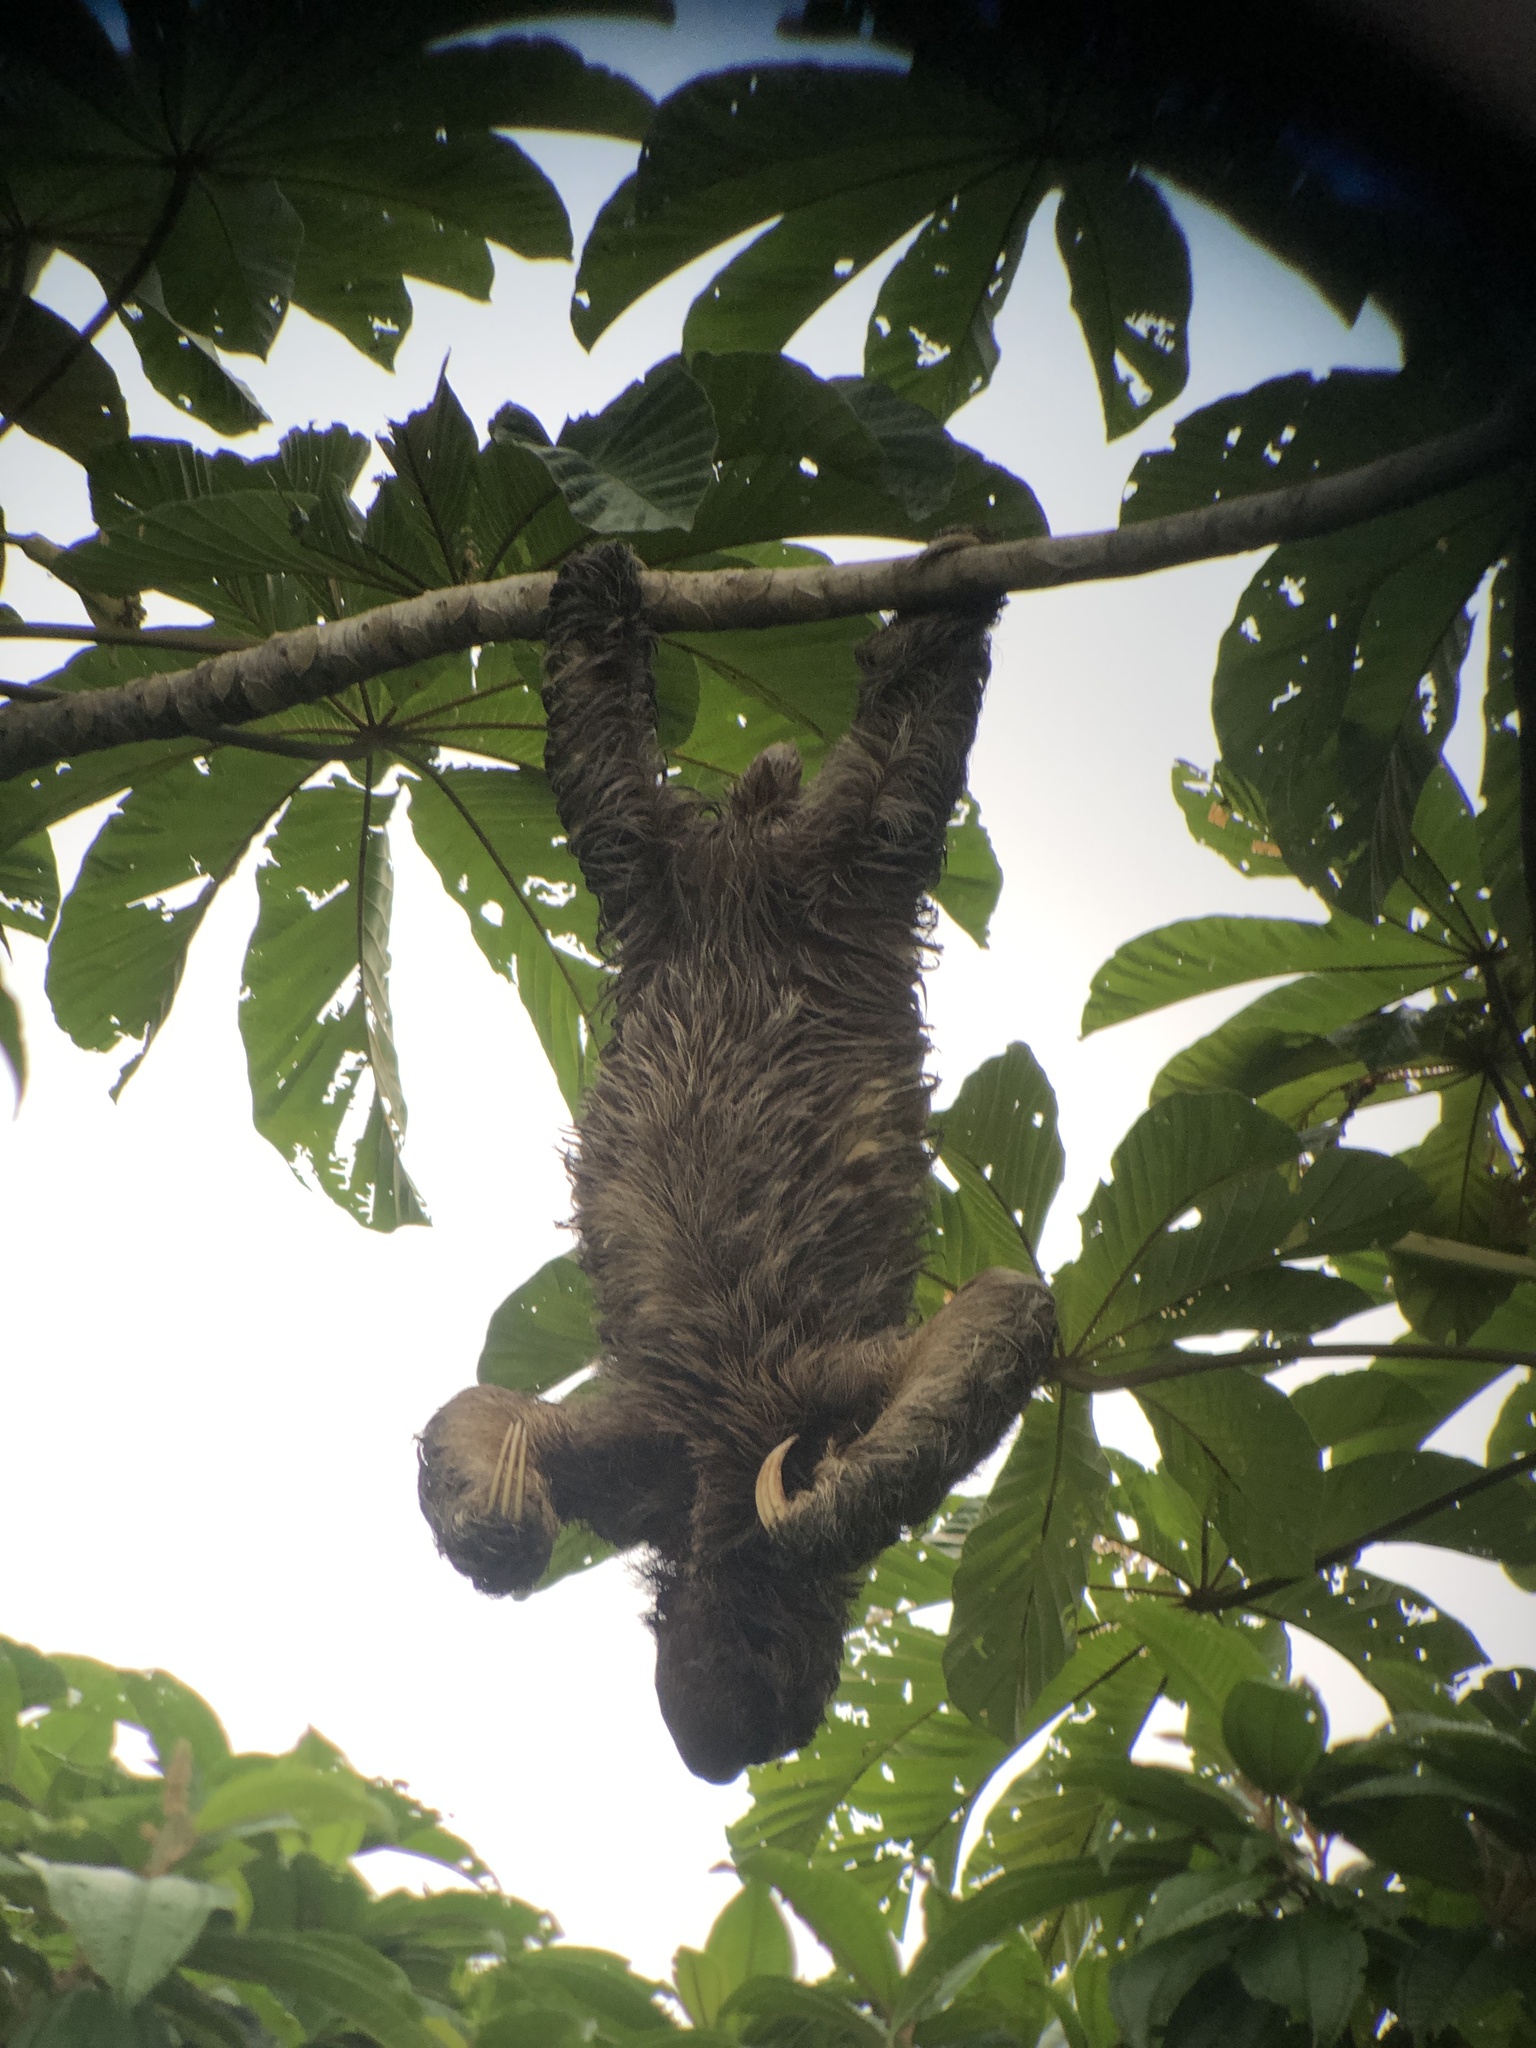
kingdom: Animalia
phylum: Chordata
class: Mammalia
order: Pilosa
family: Bradypodidae
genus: Bradypus
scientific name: Bradypus variegatus
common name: Brown-throated three-toed sloth
